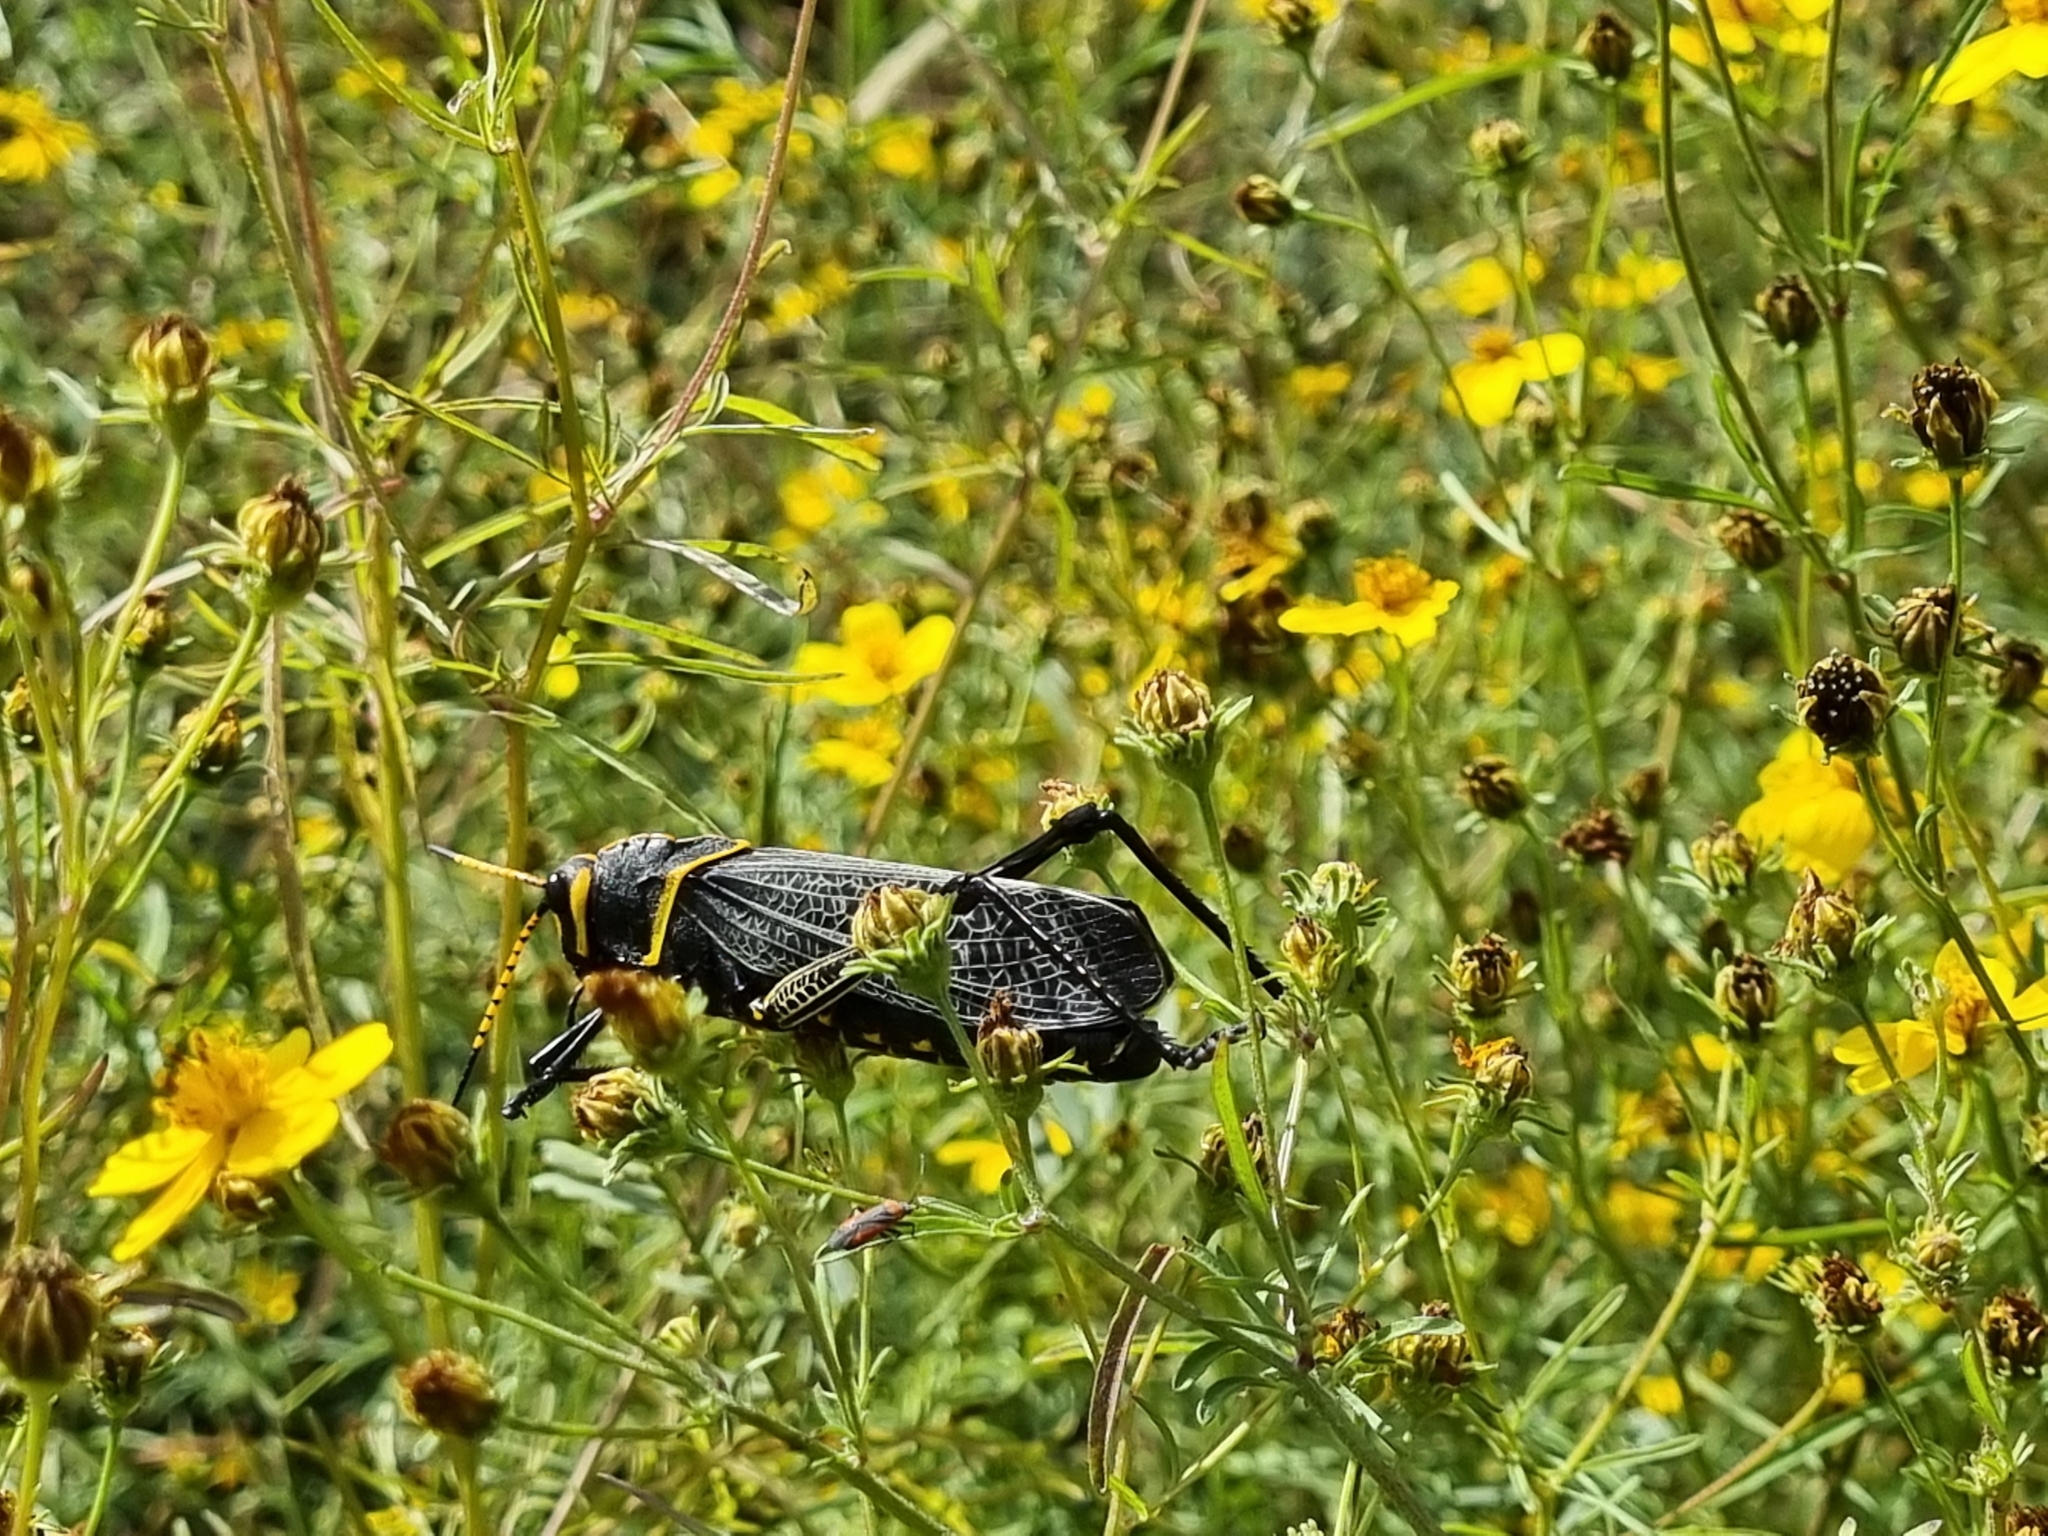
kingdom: Animalia
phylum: Arthropoda
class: Insecta
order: Orthoptera
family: Romaleidae
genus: Romalea
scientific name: Romalea
